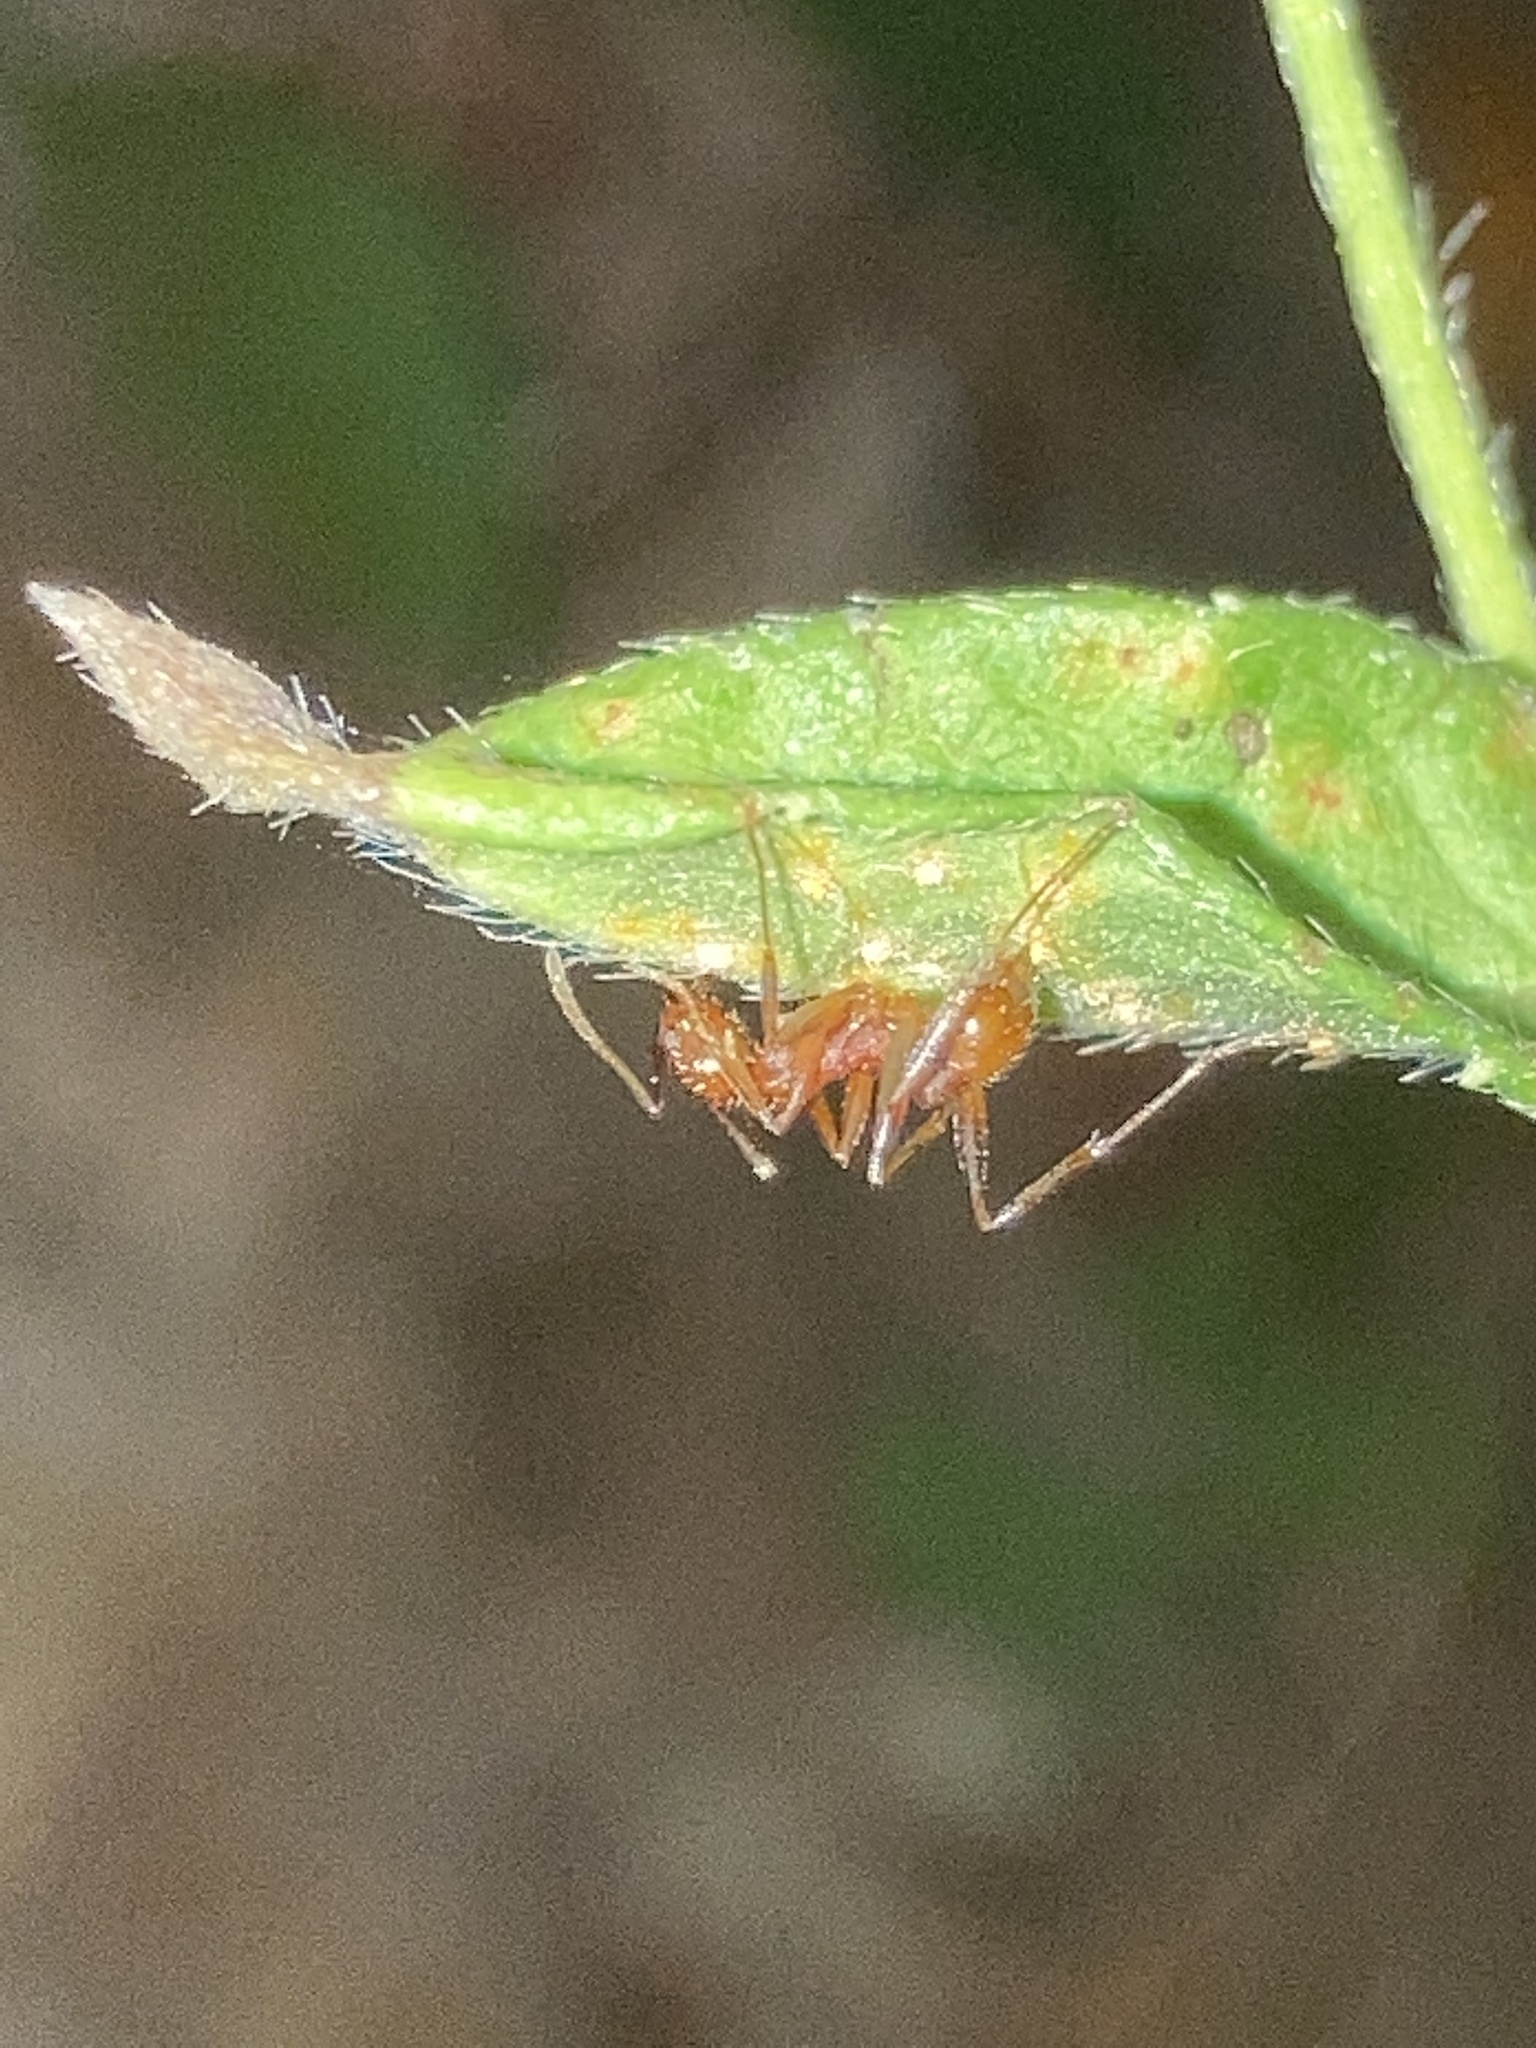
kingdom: Animalia
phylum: Arthropoda
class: Insecta
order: Hymenoptera
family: Formicidae
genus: Aphaenogaster
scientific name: Aphaenogaster texana
